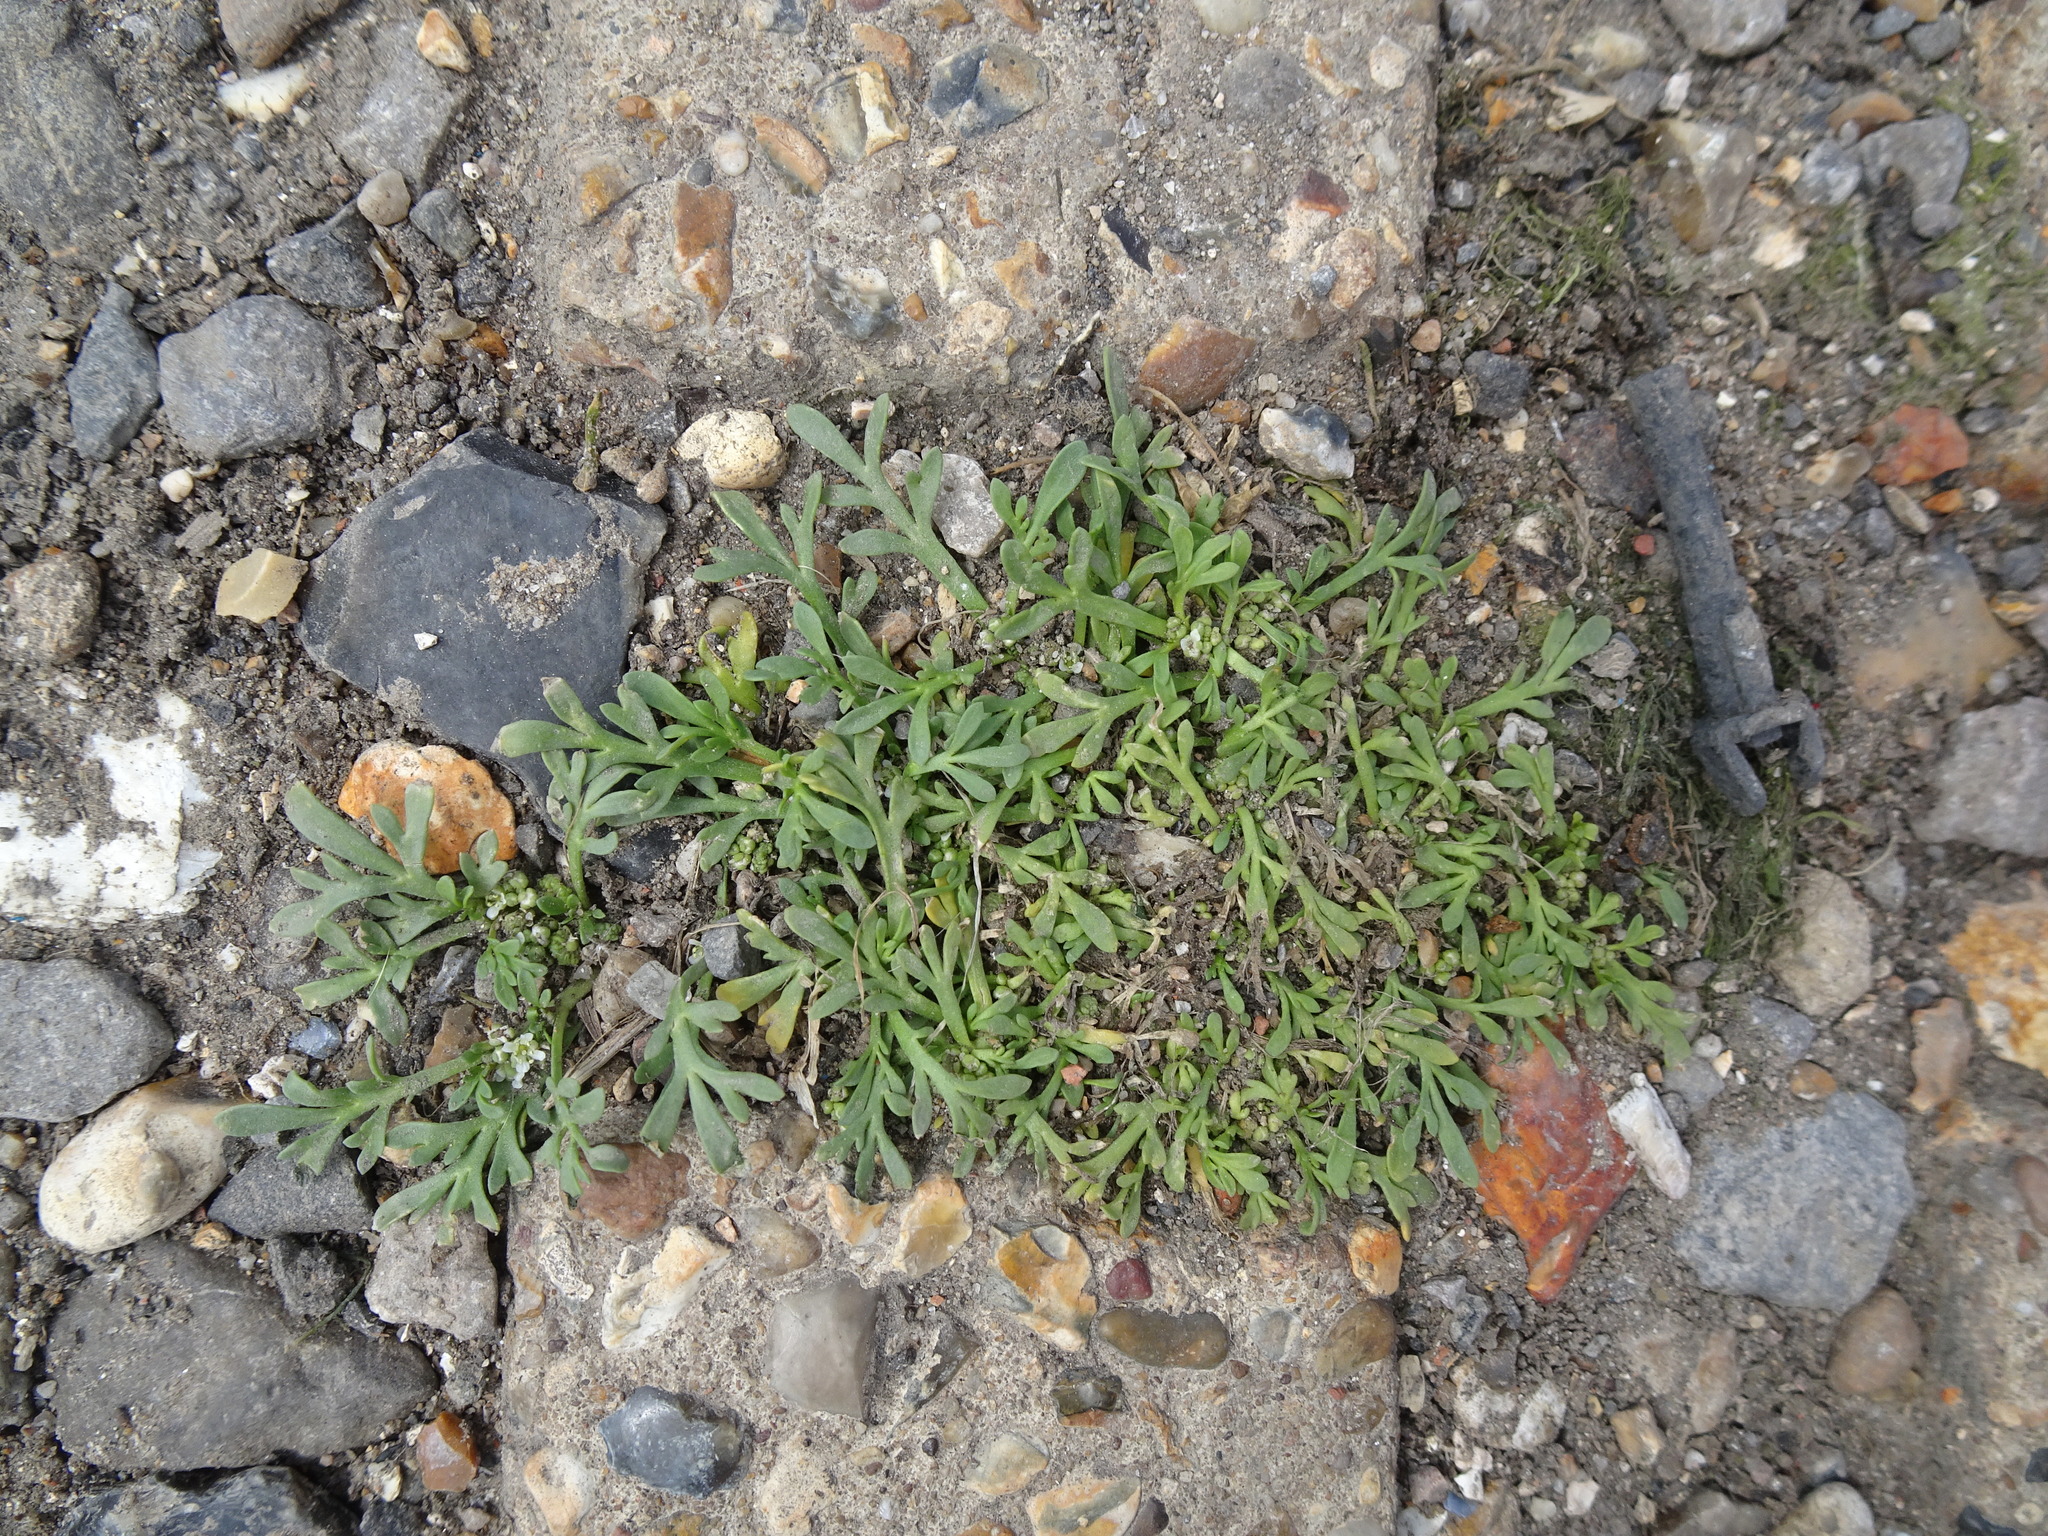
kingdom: Plantae
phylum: Tracheophyta
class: Magnoliopsida
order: Brassicales
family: Brassicaceae
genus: Lepidium
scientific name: Lepidium coronopus
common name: Greater swinecress
